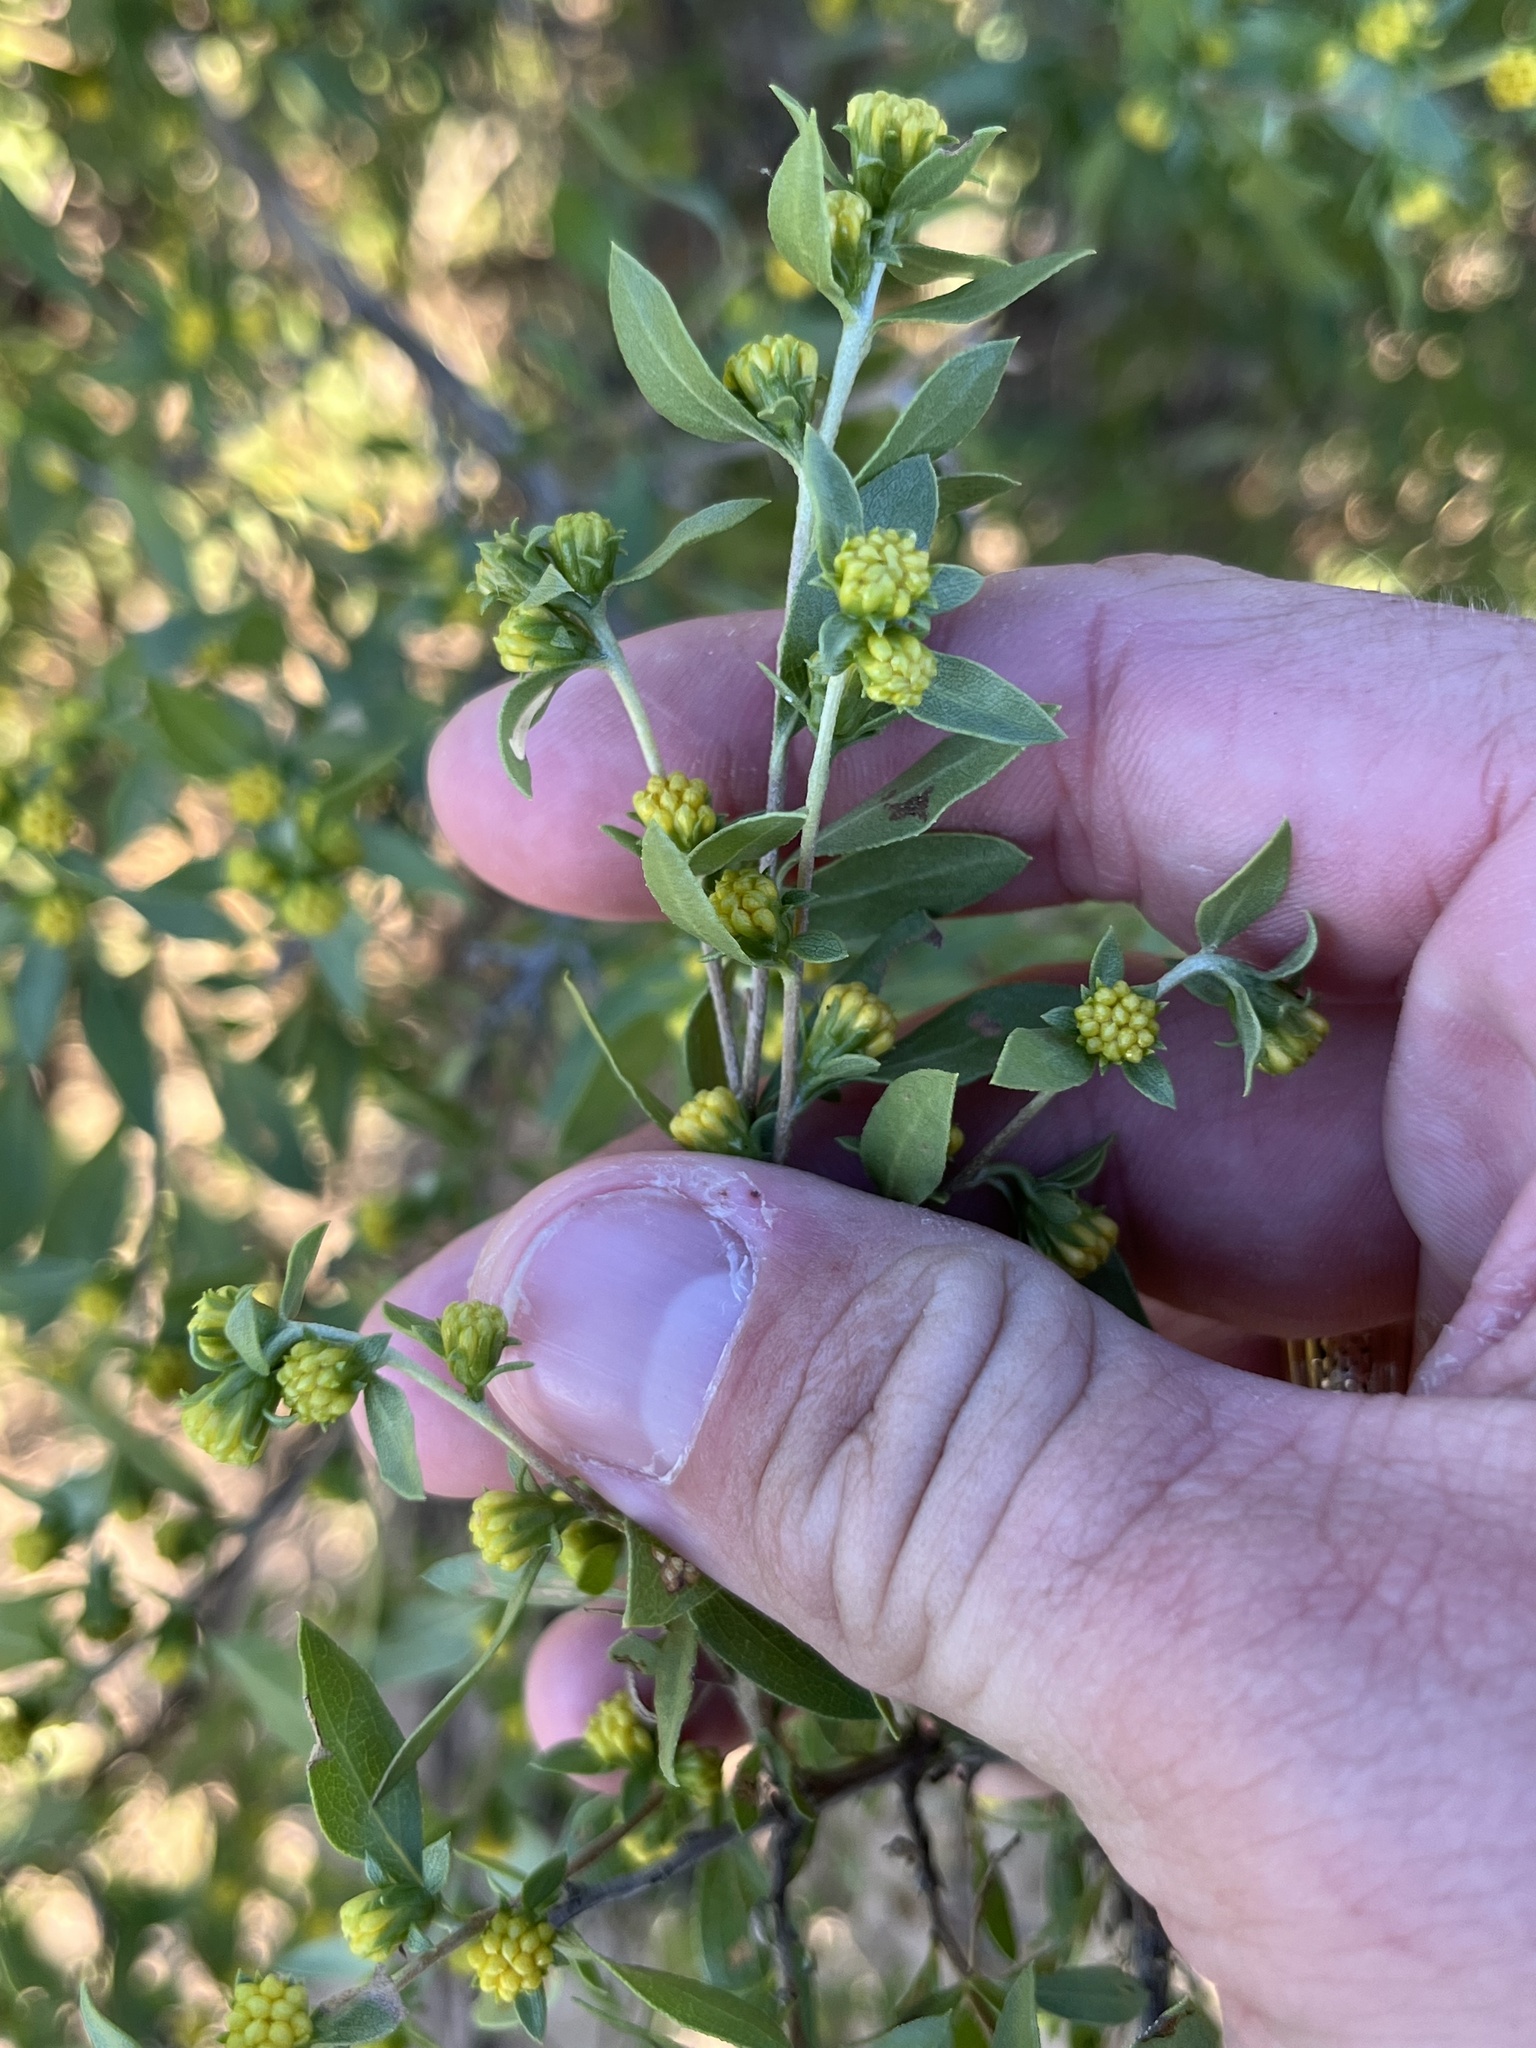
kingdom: Plantae
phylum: Tracheophyta
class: Magnoliopsida
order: Asterales
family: Asteraceae
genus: Flourensia
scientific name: Flourensia cernua
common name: Varnishbush
